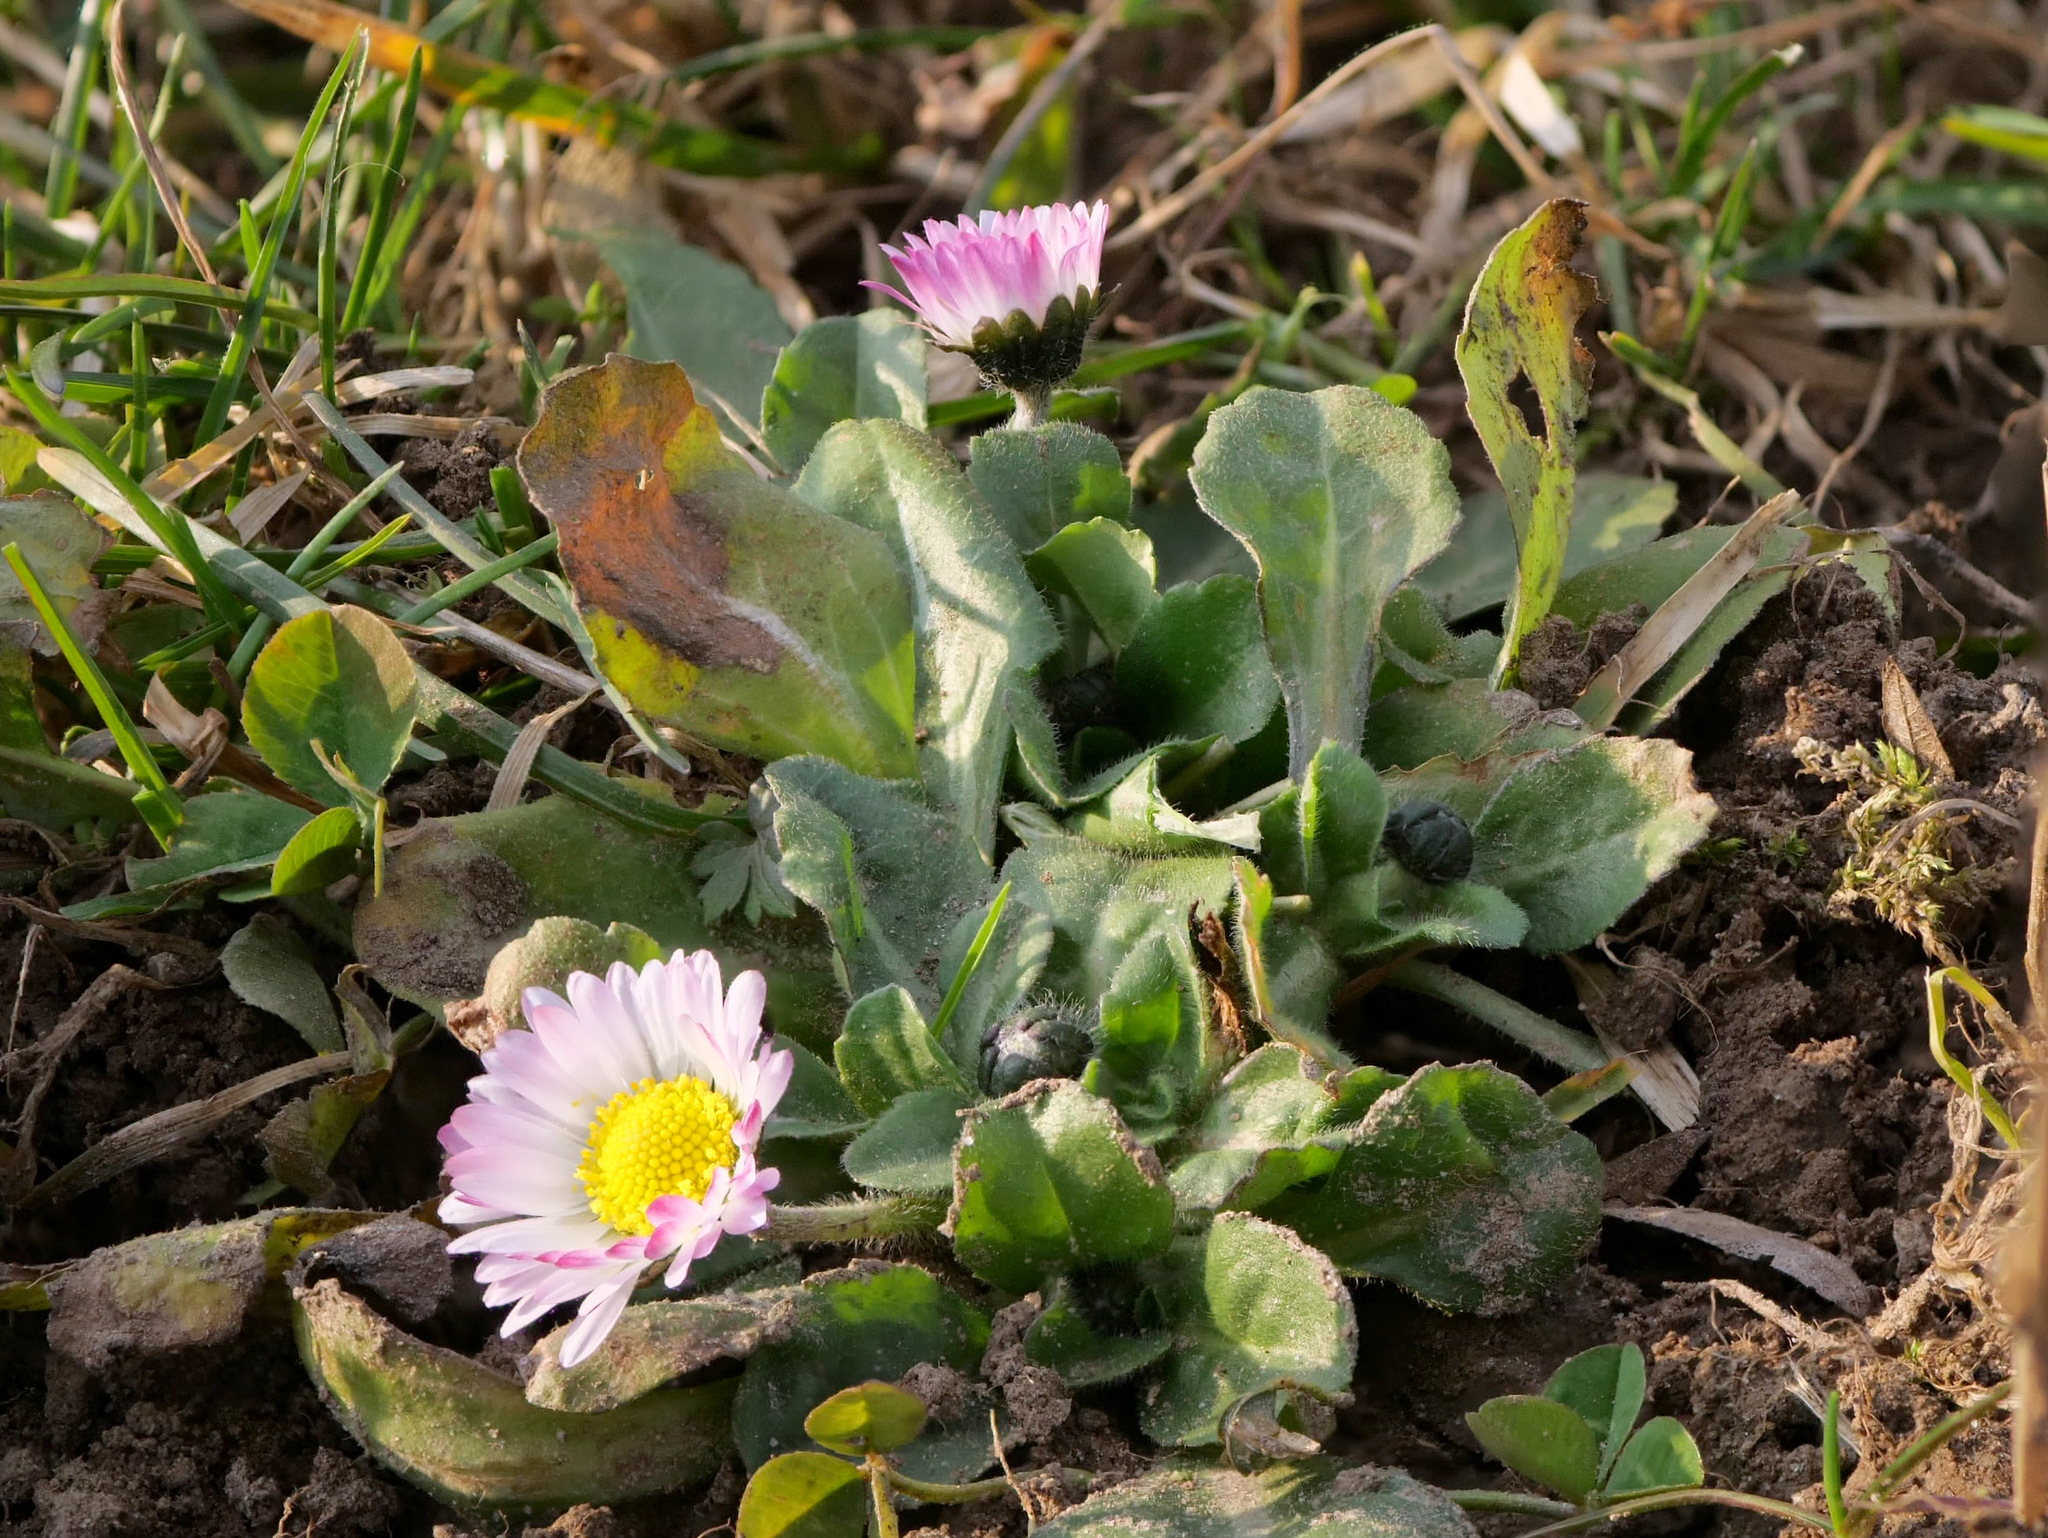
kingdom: Plantae
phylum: Tracheophyta
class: Magnoliopsida
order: Asterales
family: Asteraceae
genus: Bellis
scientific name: Bellis perennis
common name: Lawndaisy
